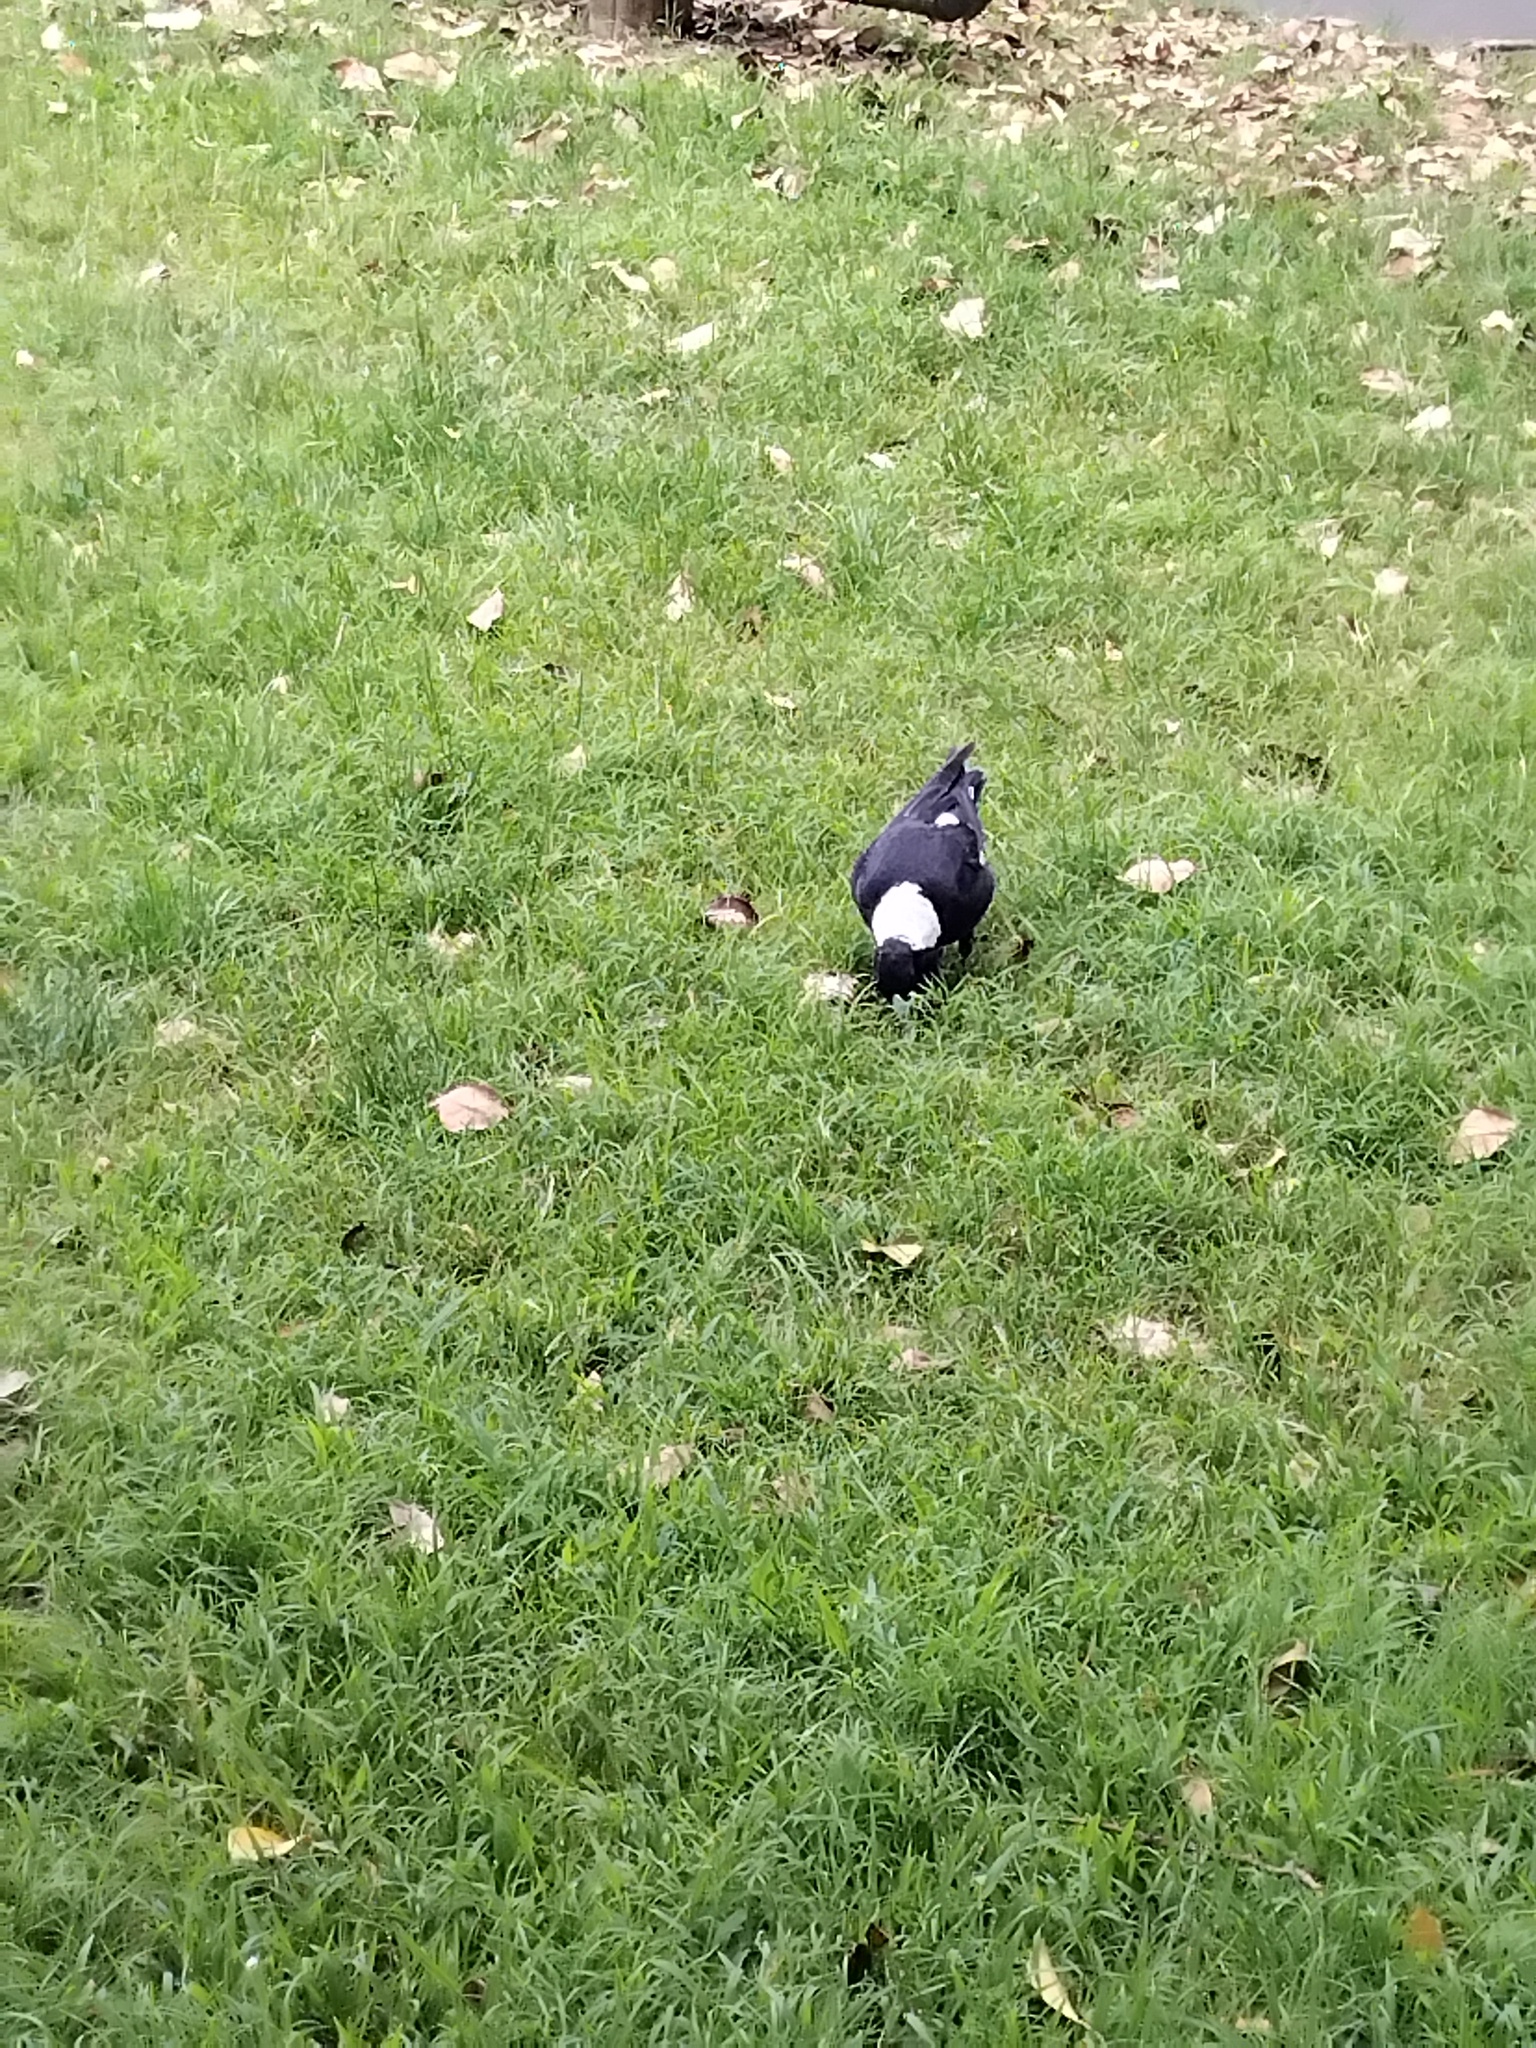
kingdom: Animalia
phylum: Chordata
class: Aves
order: Passeriformes
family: Cracticidae
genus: Gymnorhina
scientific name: Gymnorhina tibicen
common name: Australian magpie
